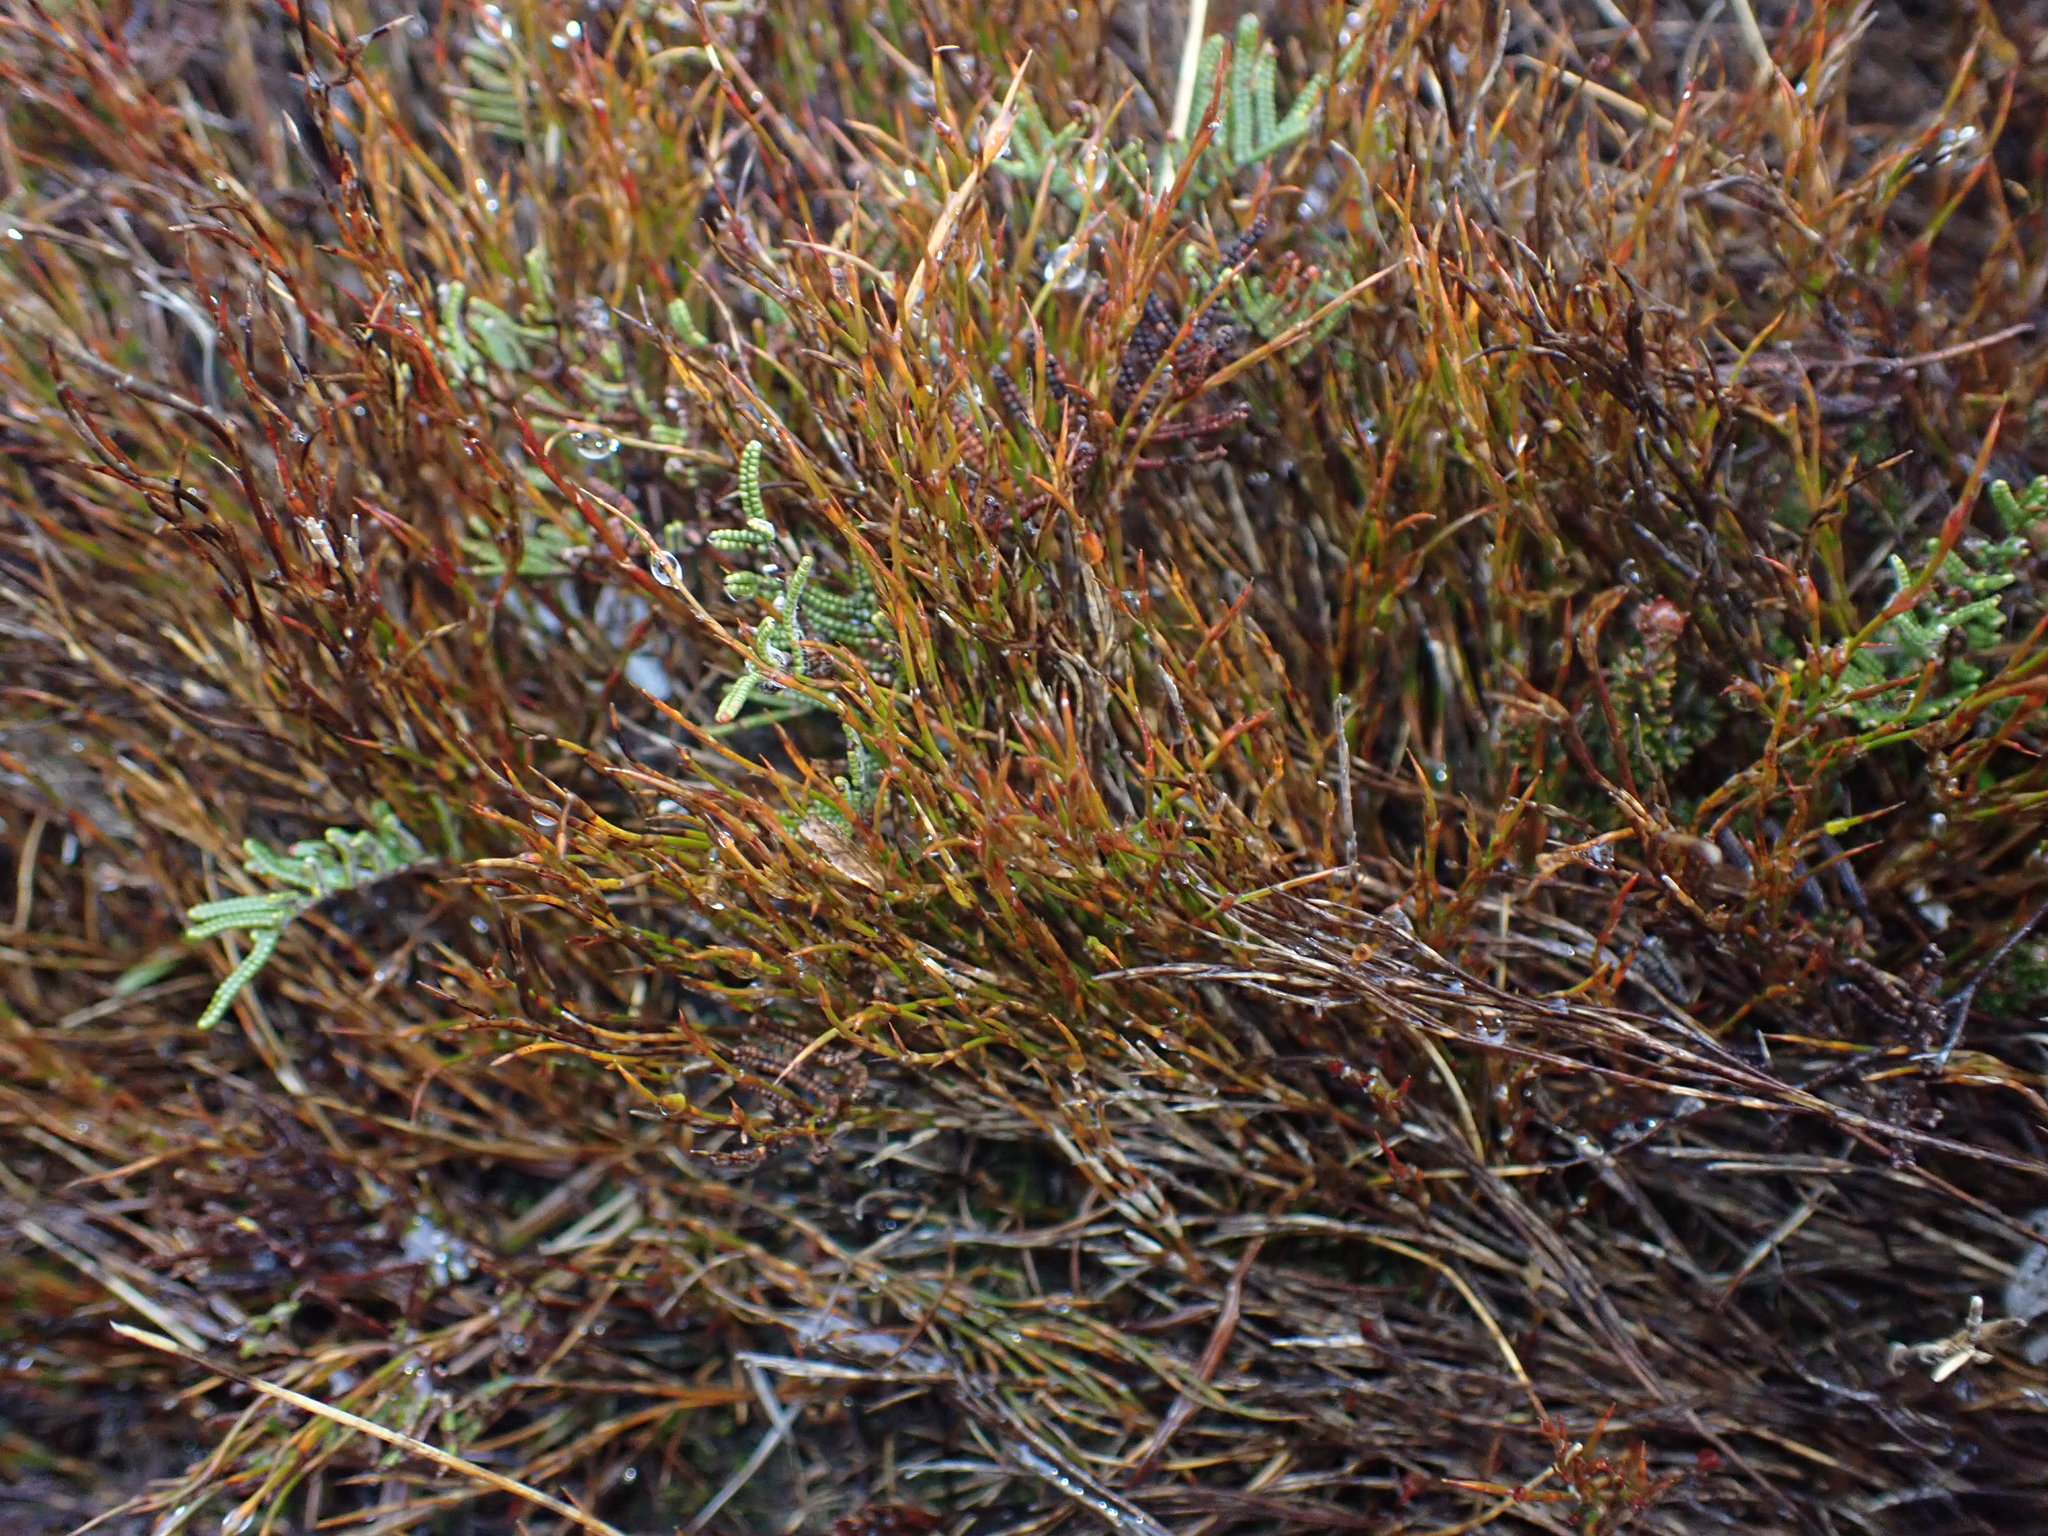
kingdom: Plantae
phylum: Tracheophyta
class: Liliopsida
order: Poales
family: Restionaceae
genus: Empodisma
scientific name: Empodisma minus
